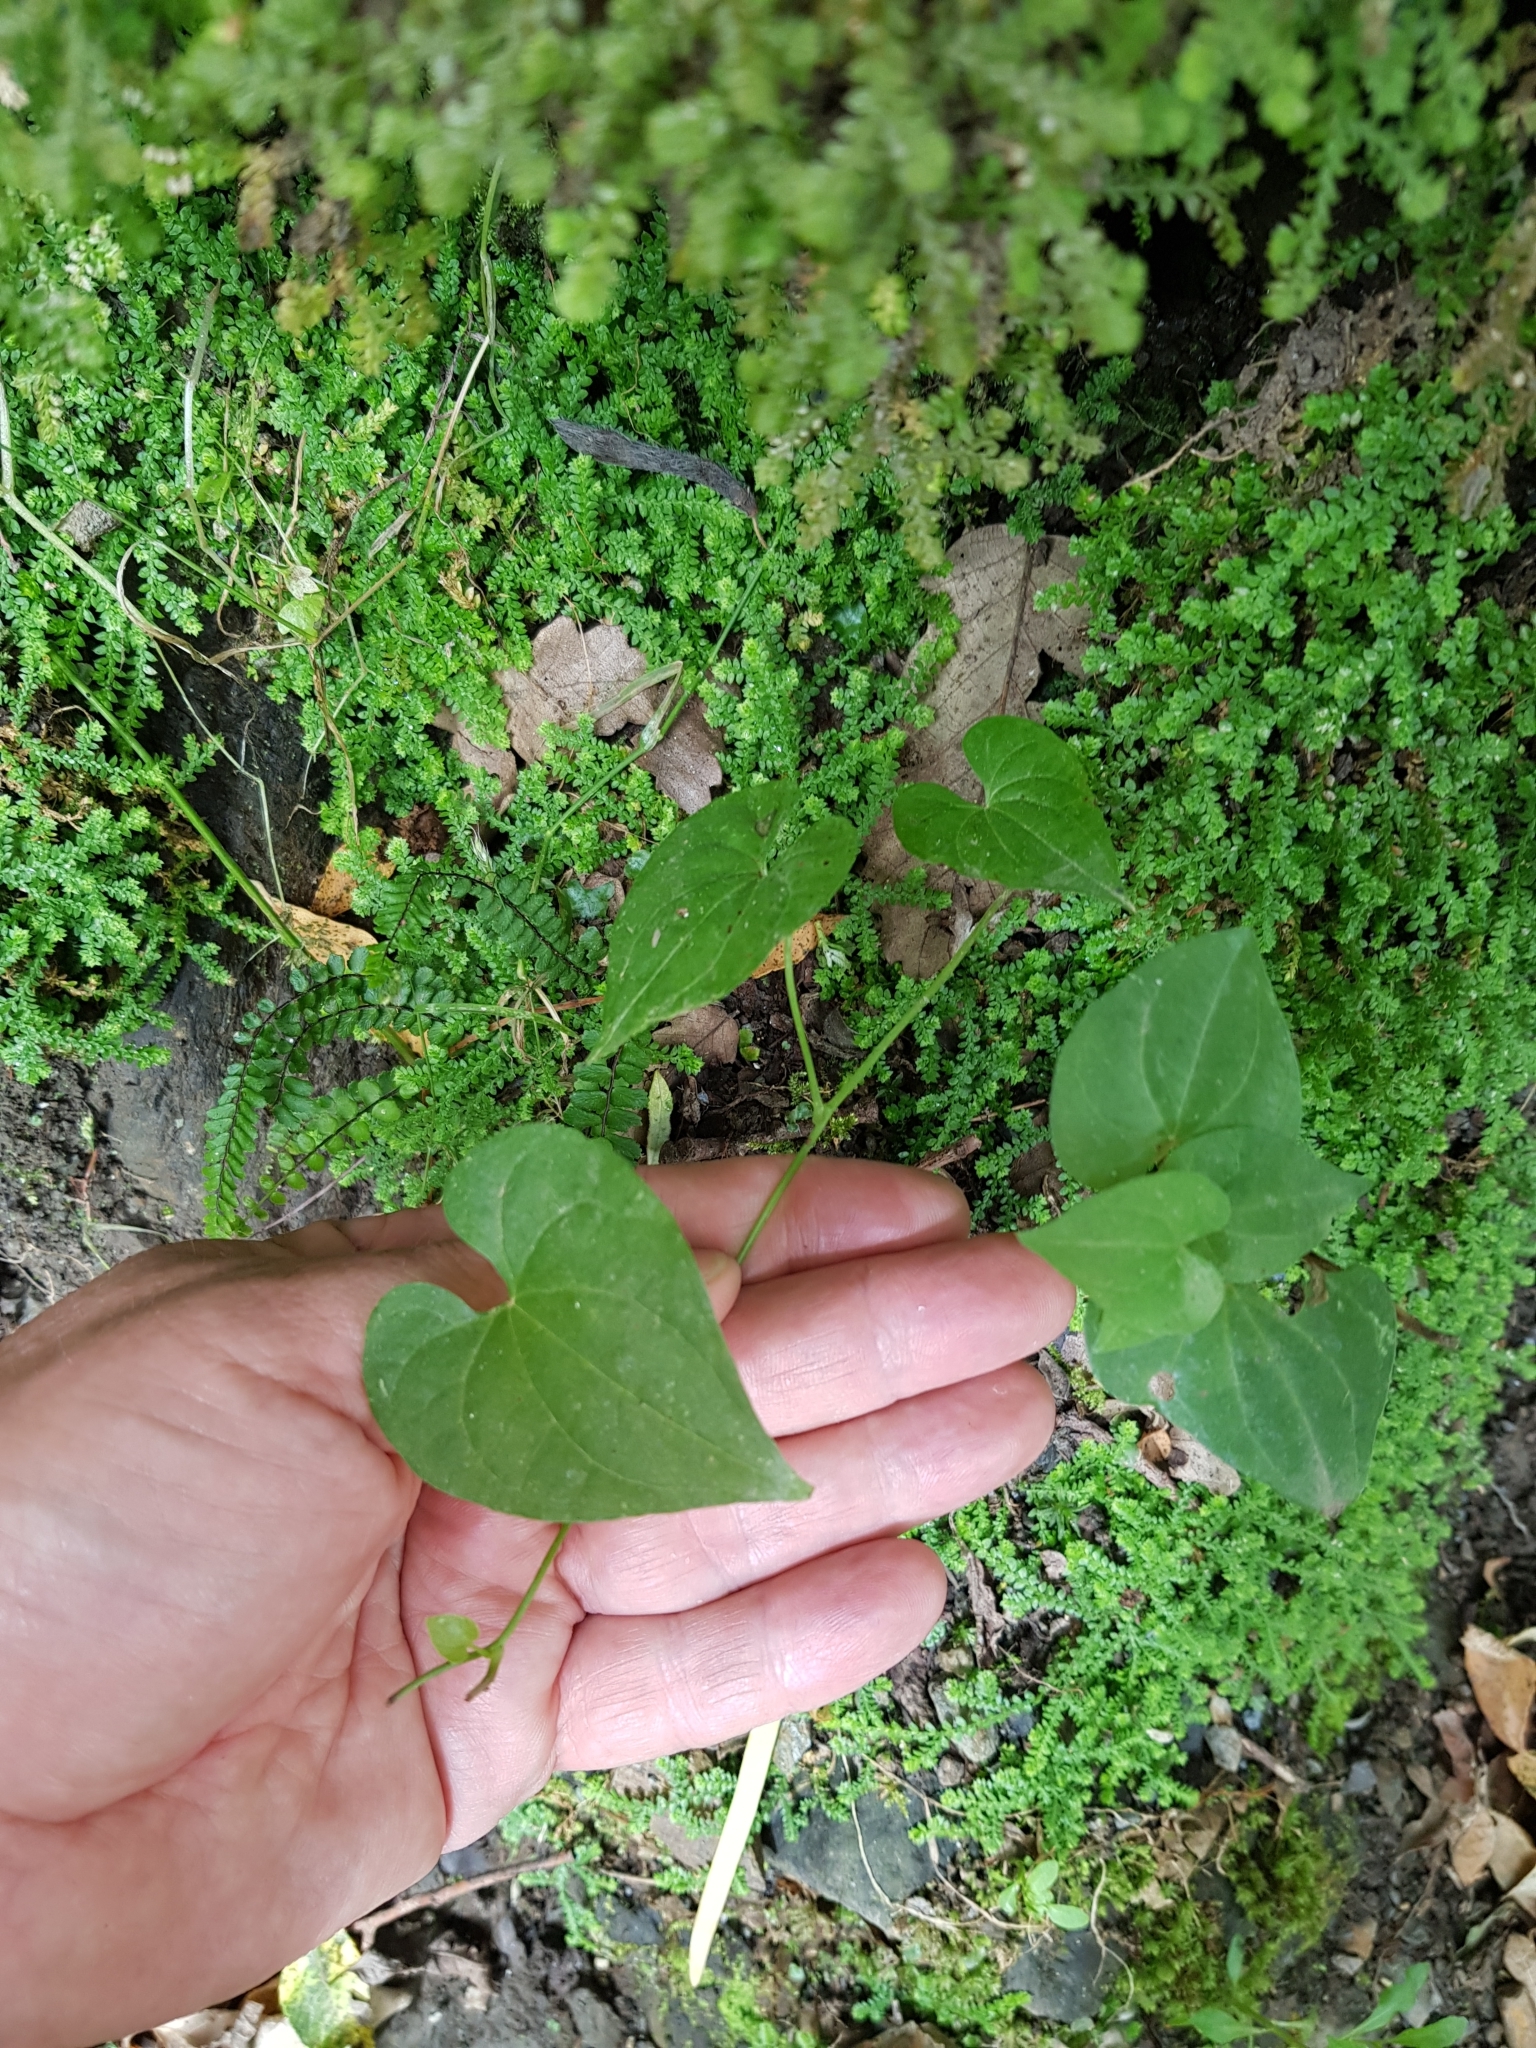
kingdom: Plantae
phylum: Tracheophyta
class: Liliopsida
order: Dioscoreales
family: Dioscoreaceae
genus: Dioscorea
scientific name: Dioscorea communis
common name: Black-bindweed
